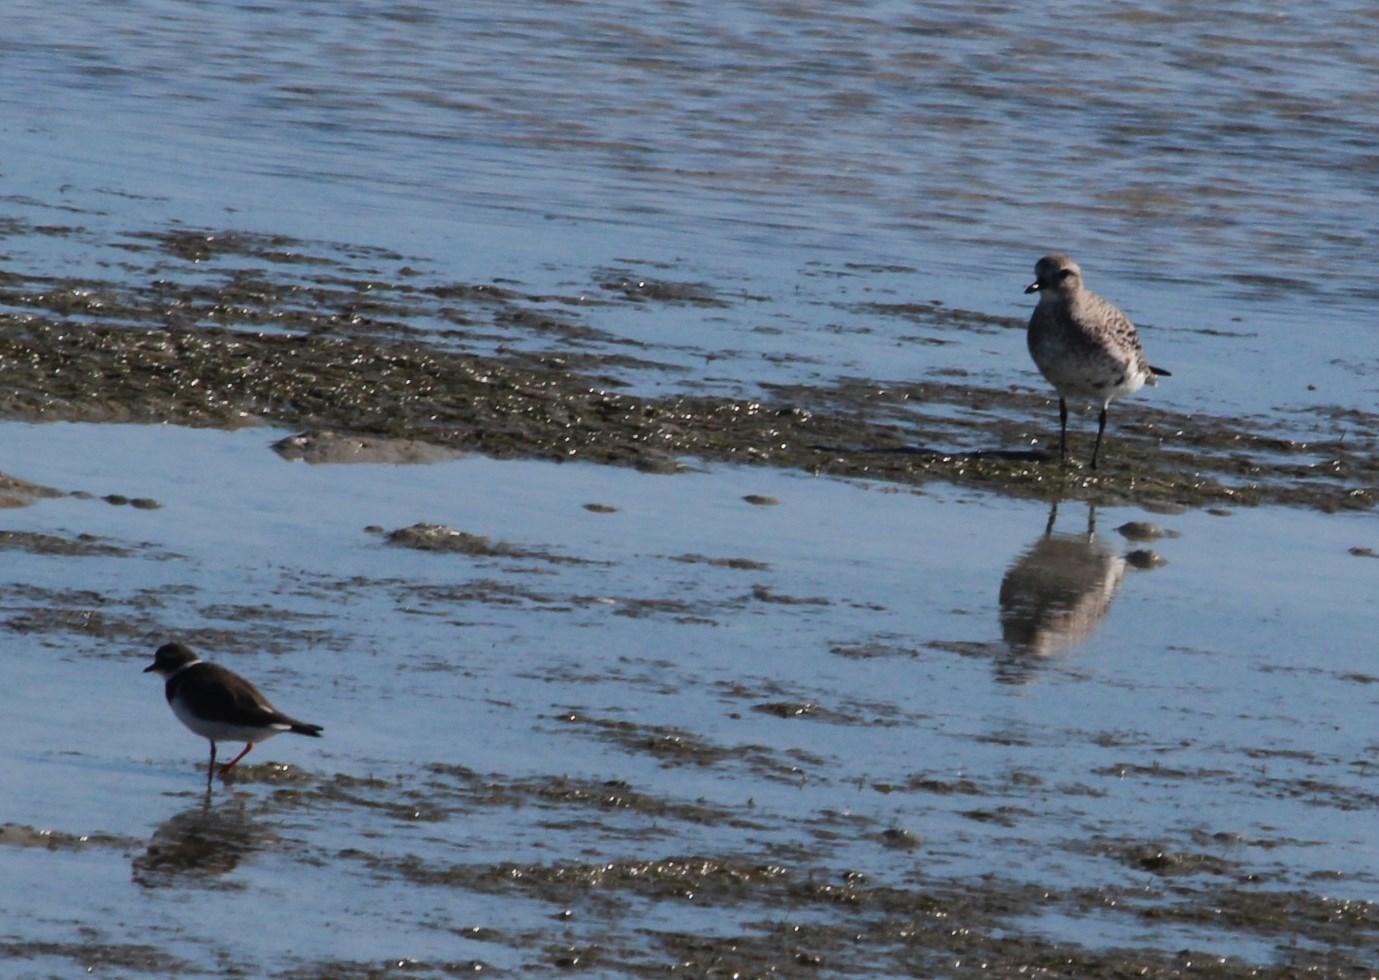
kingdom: Animalia
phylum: Chordata
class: Aves
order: Charadriiformes
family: Charadriidae
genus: Charadrius
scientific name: Charadrius hiaticula
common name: Common ringed plover
